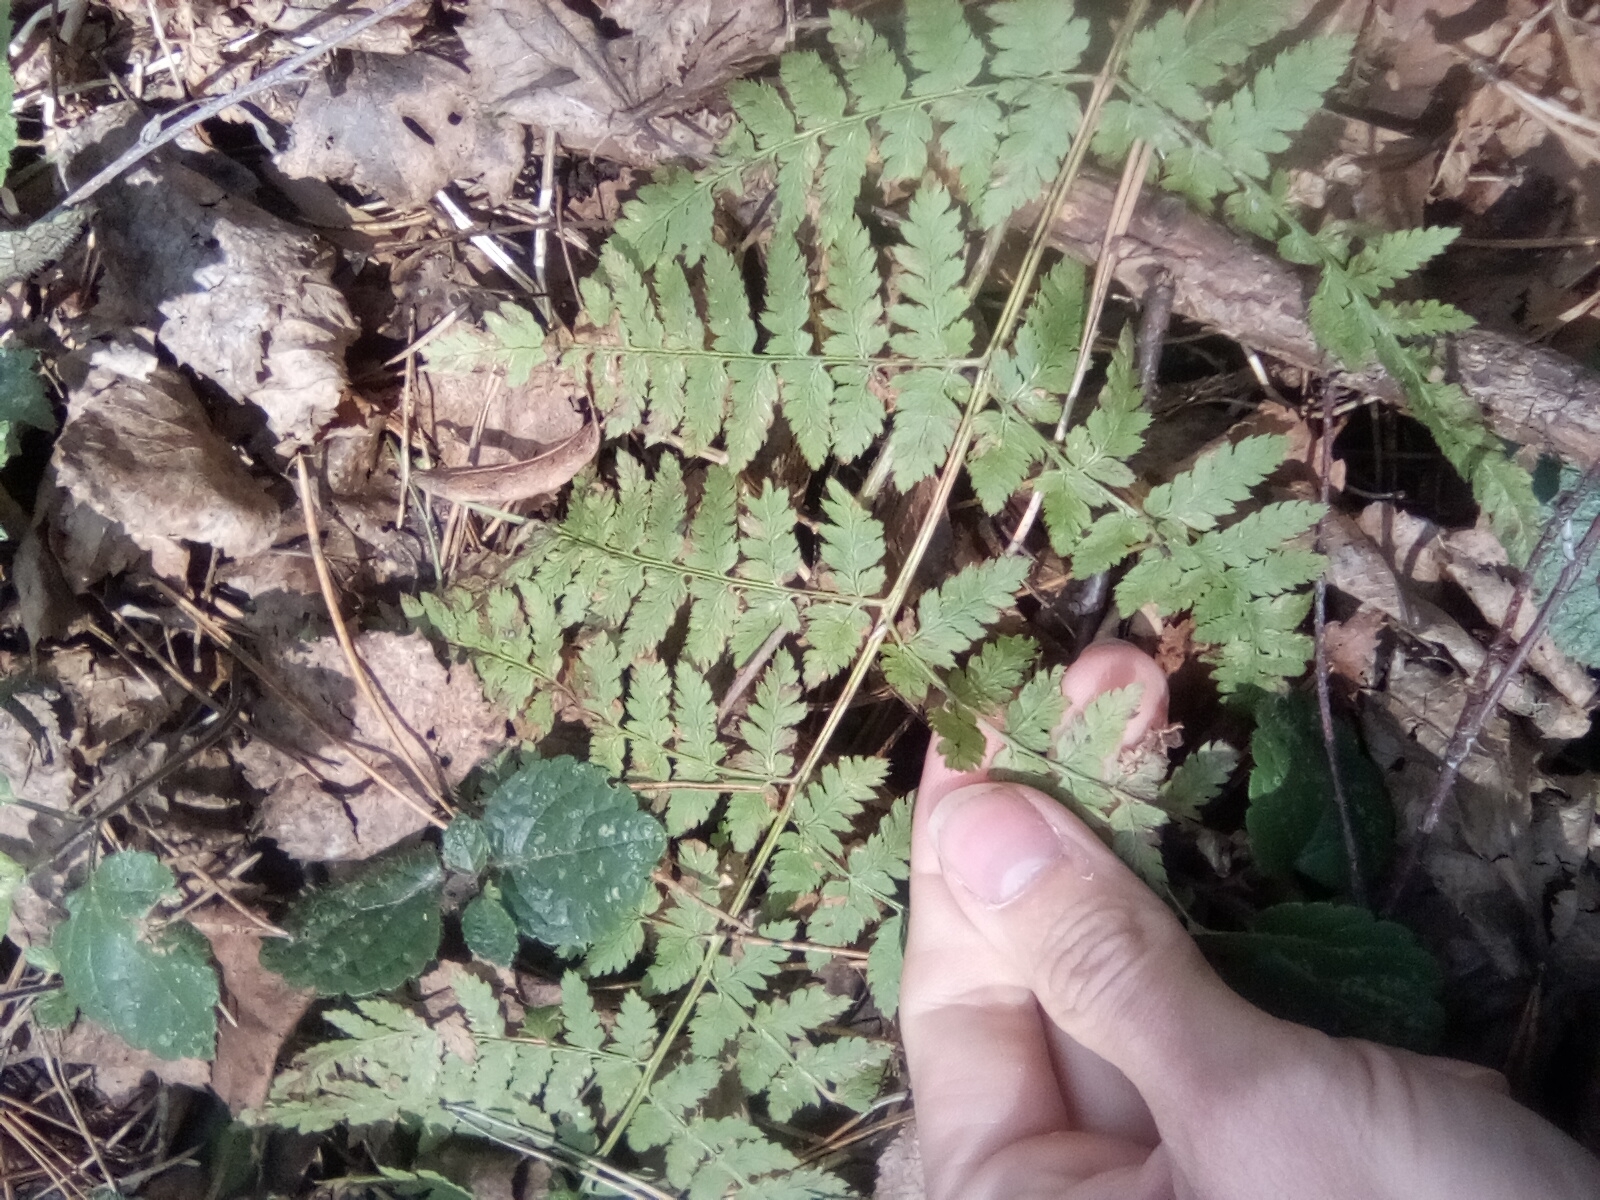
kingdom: Plantae
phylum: Tracheophyta
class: Polypodiopsida
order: Polypodiales
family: Dryopteridaceae
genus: Dryopteris
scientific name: Dryopteris carthusiana
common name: Narrow buckler-fern
